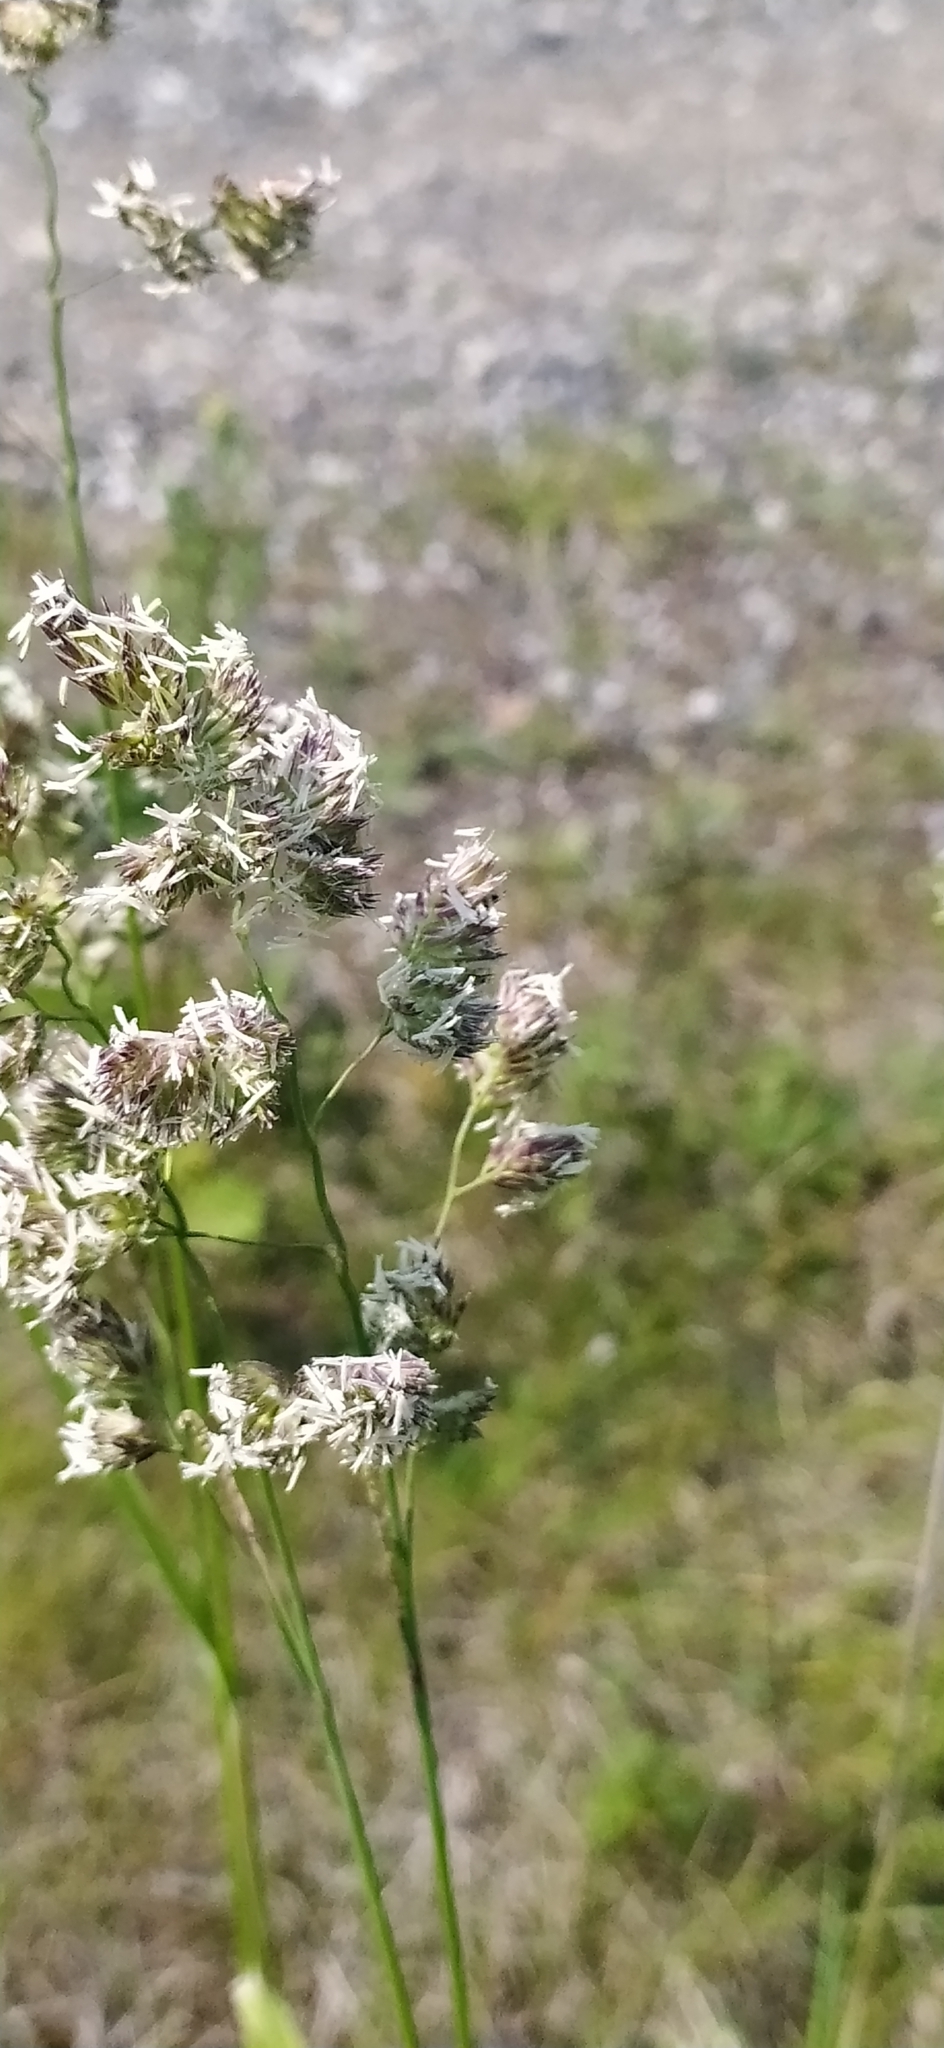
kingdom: Plantae
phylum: Tracheophyta
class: Liliopsida
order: Poales
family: Poaceae
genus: Dactylis
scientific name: Dactylis glomerata
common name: Orchardgrass
